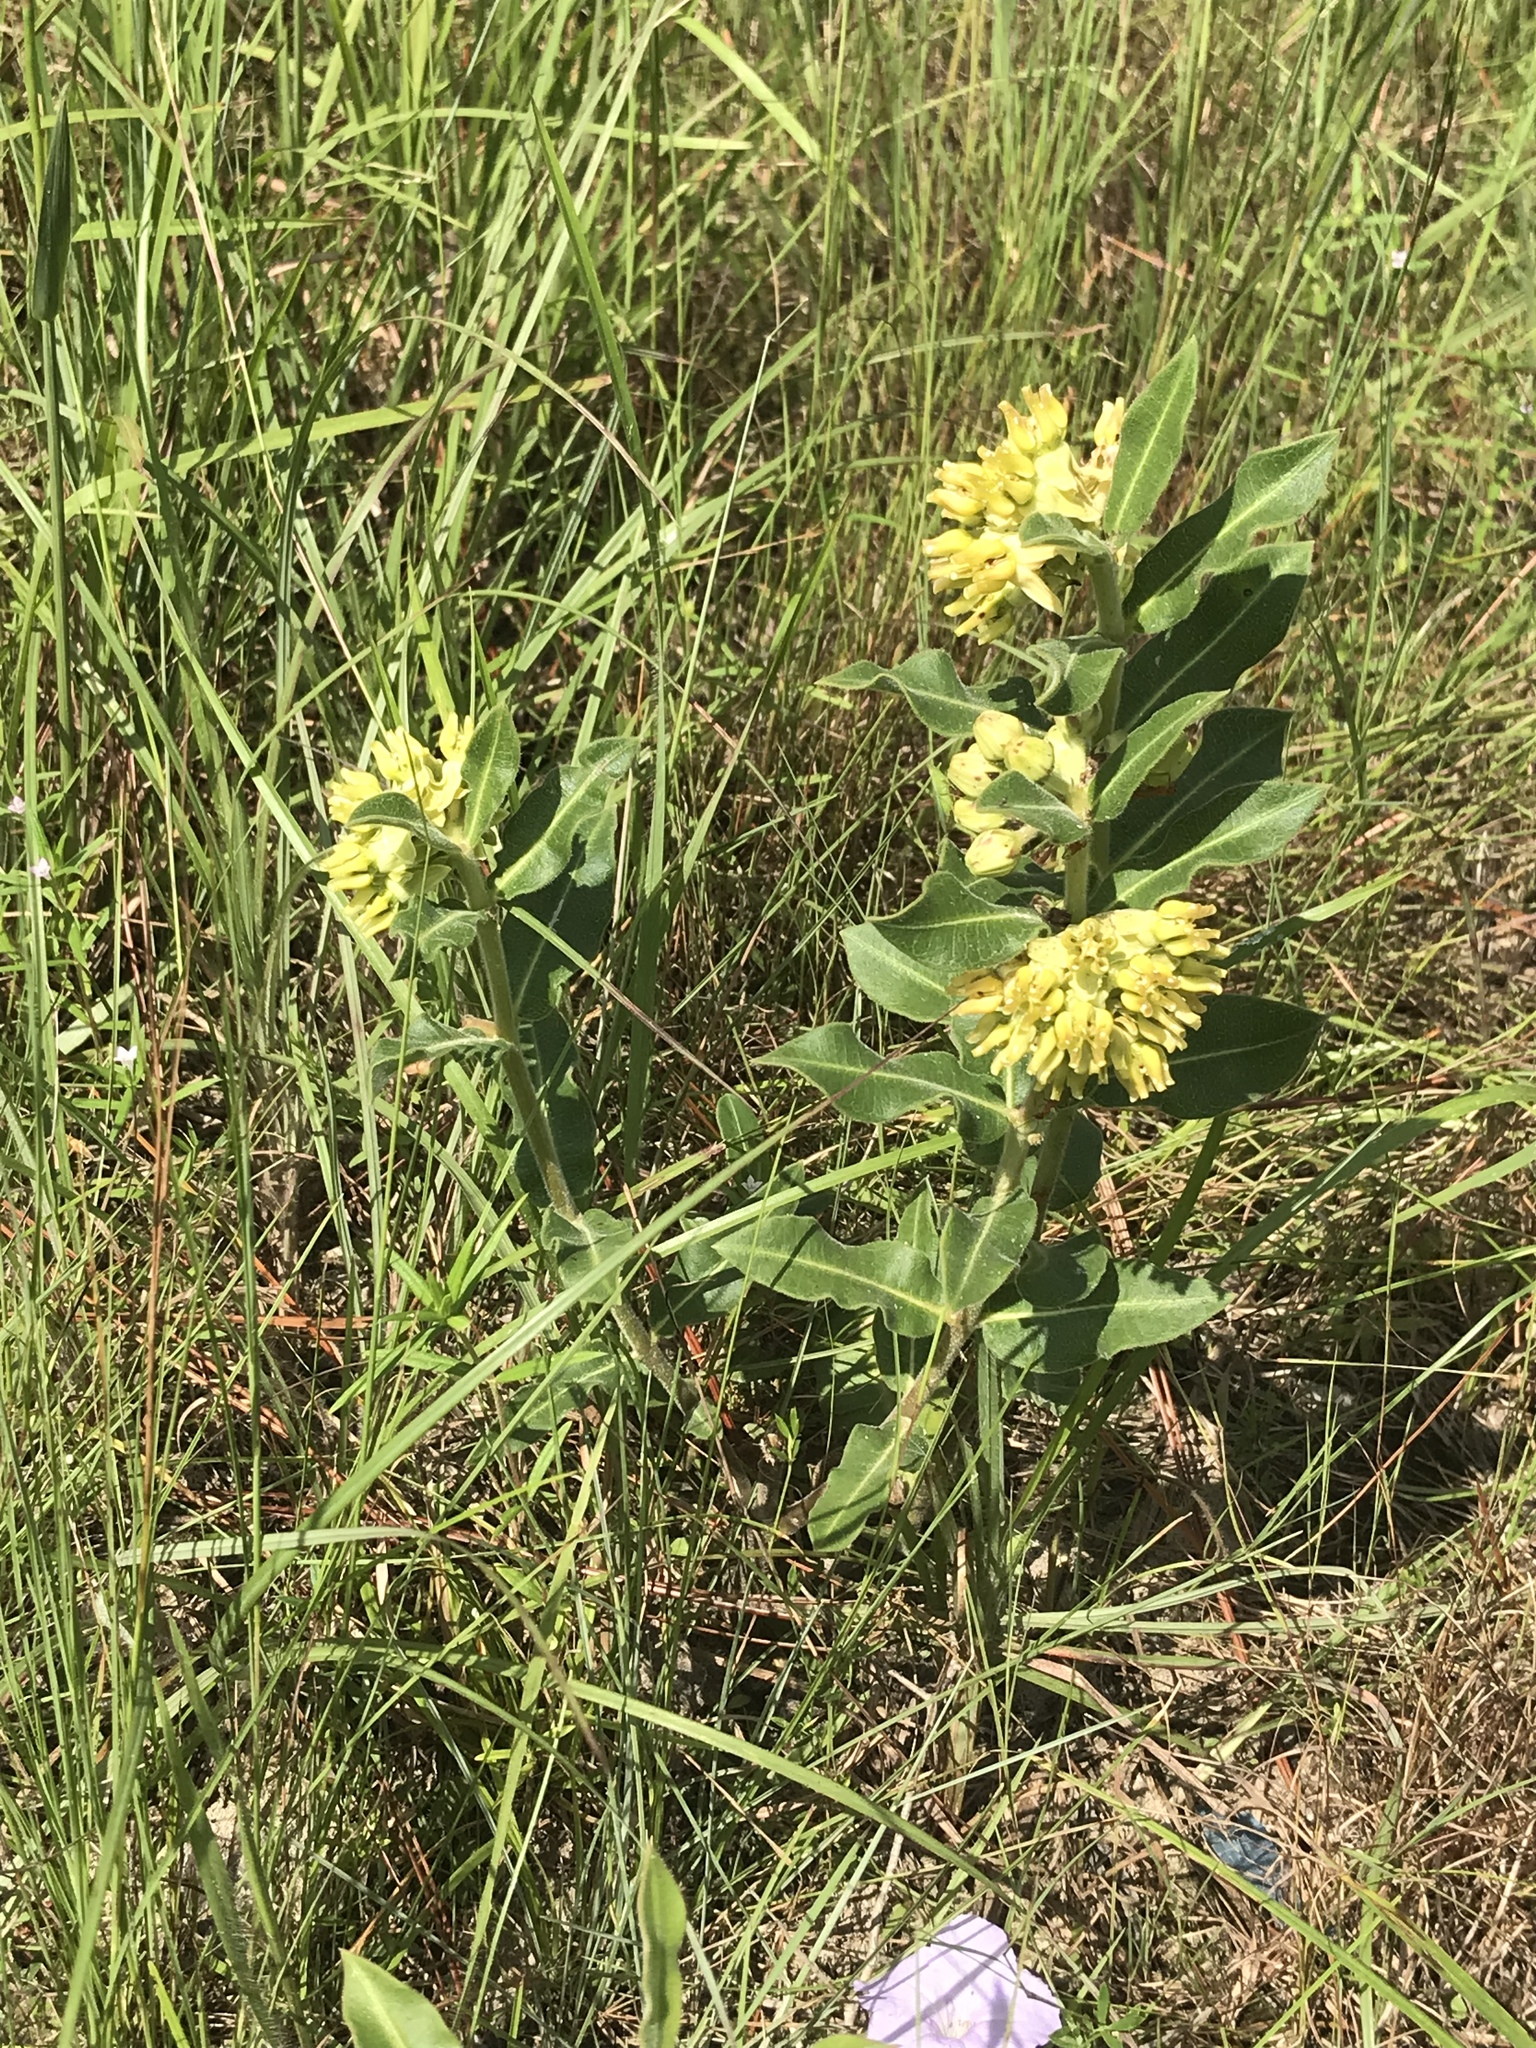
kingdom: Plantae
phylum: Tracheophyta
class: Magnoliopsida
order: Gentianales
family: Apocynaceae
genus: Asclepias
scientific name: Asclepias obovata
